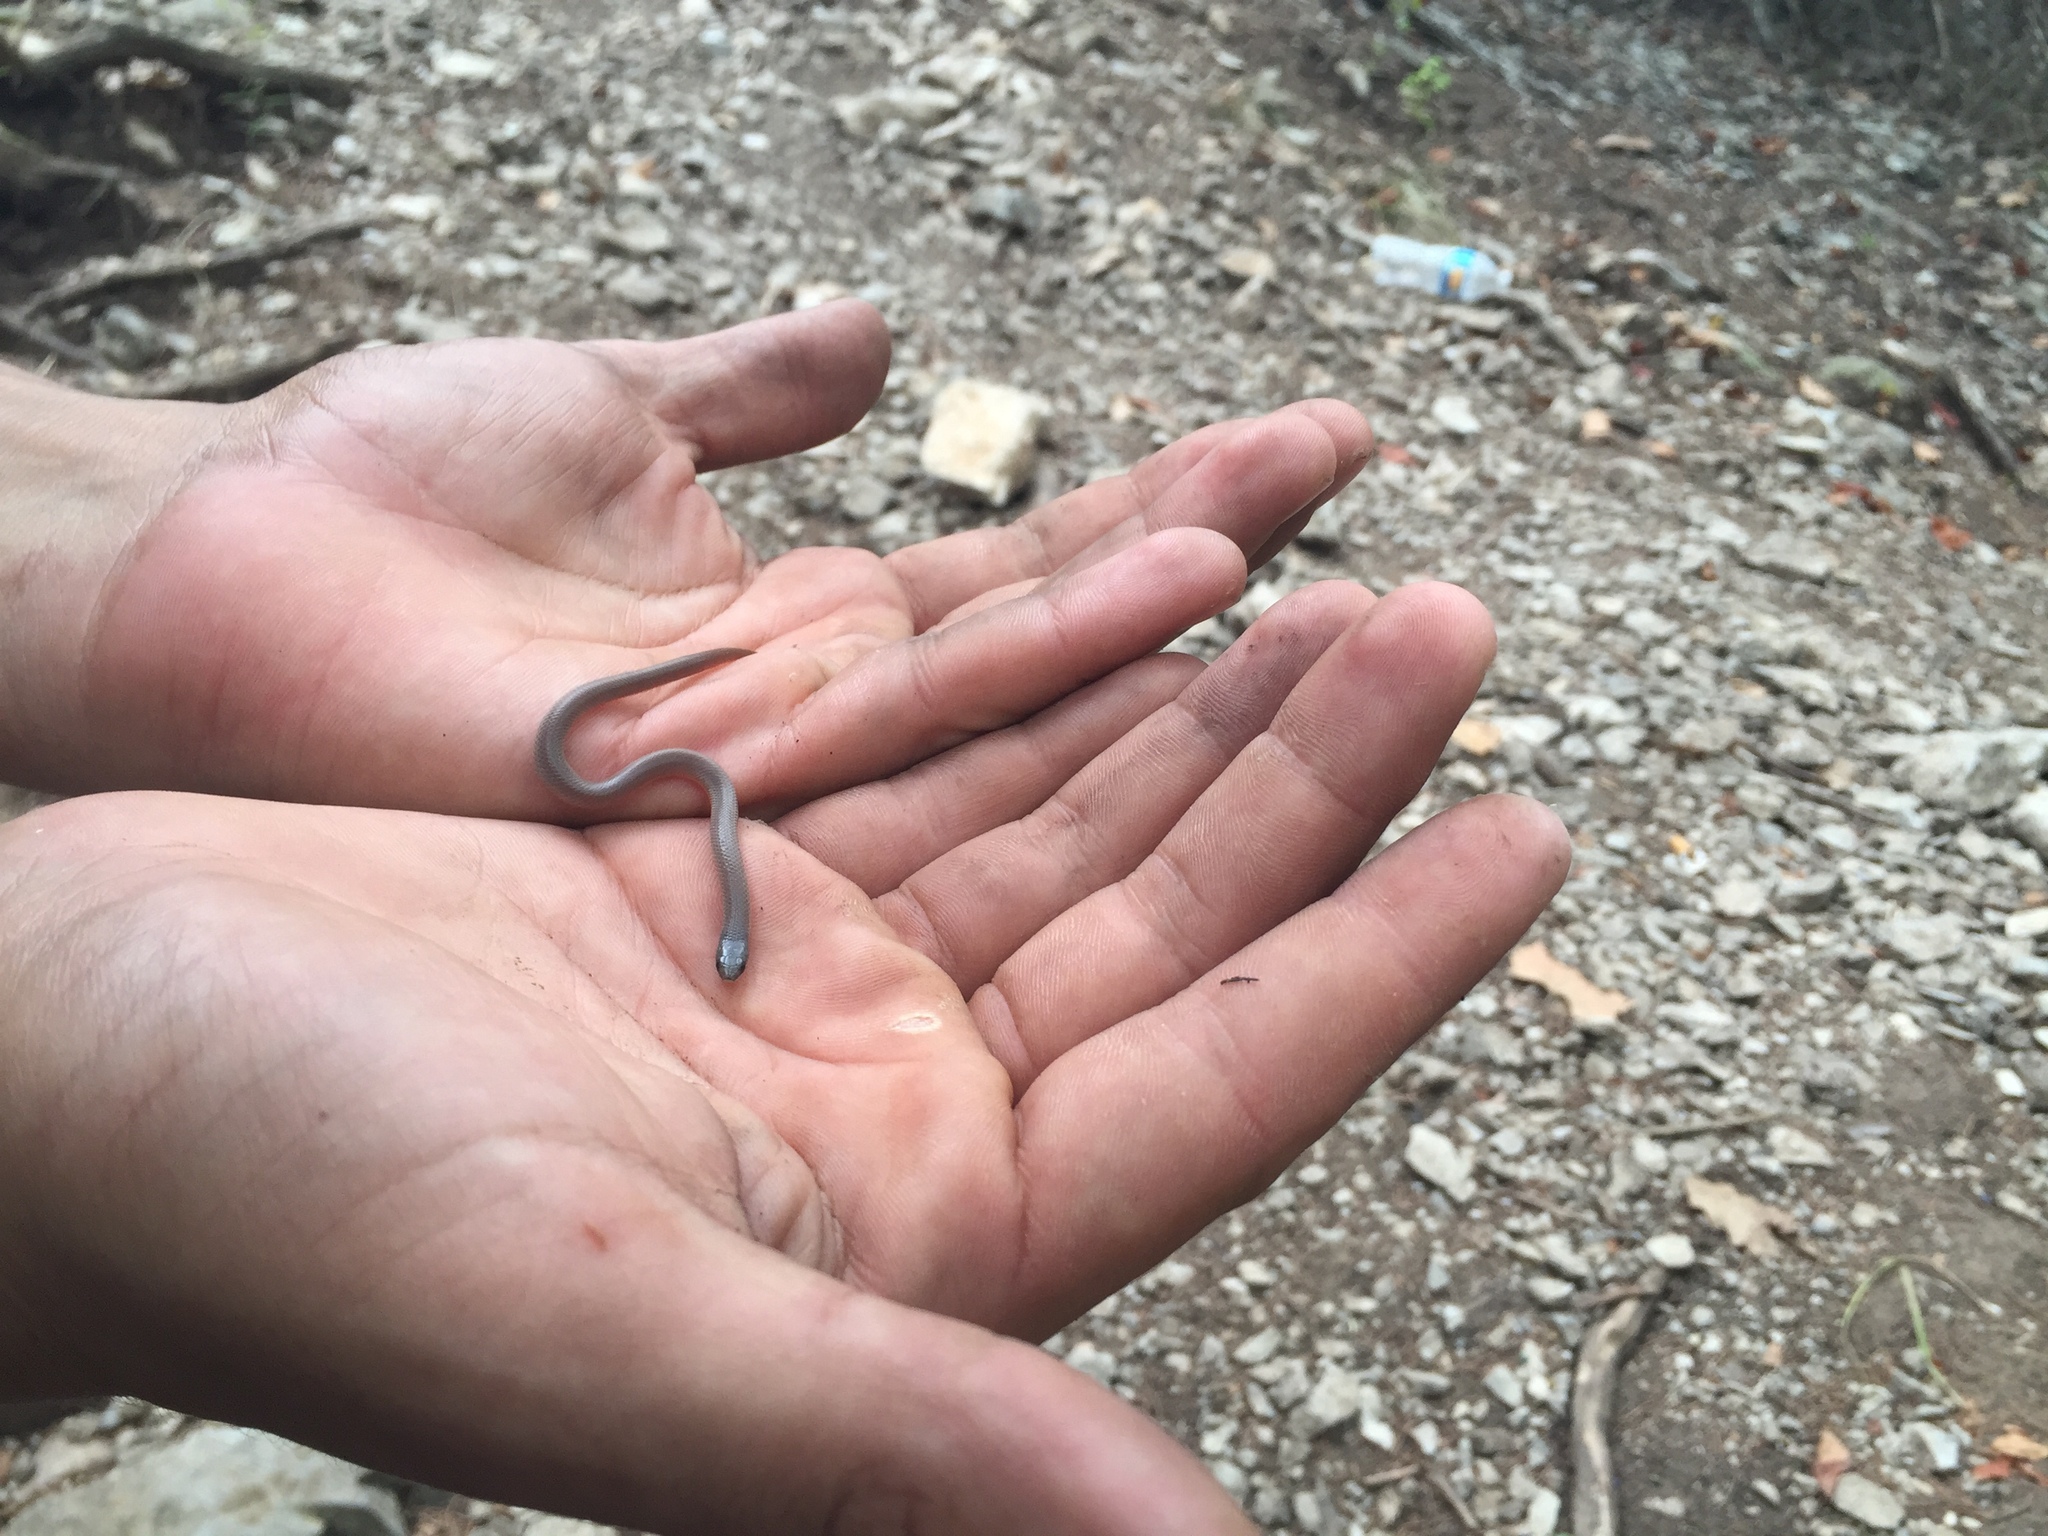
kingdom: Animalia
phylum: Chordata
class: Squamata
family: Colubridae
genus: Tantilla
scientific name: Tantilla gracilis
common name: Flathead snake
